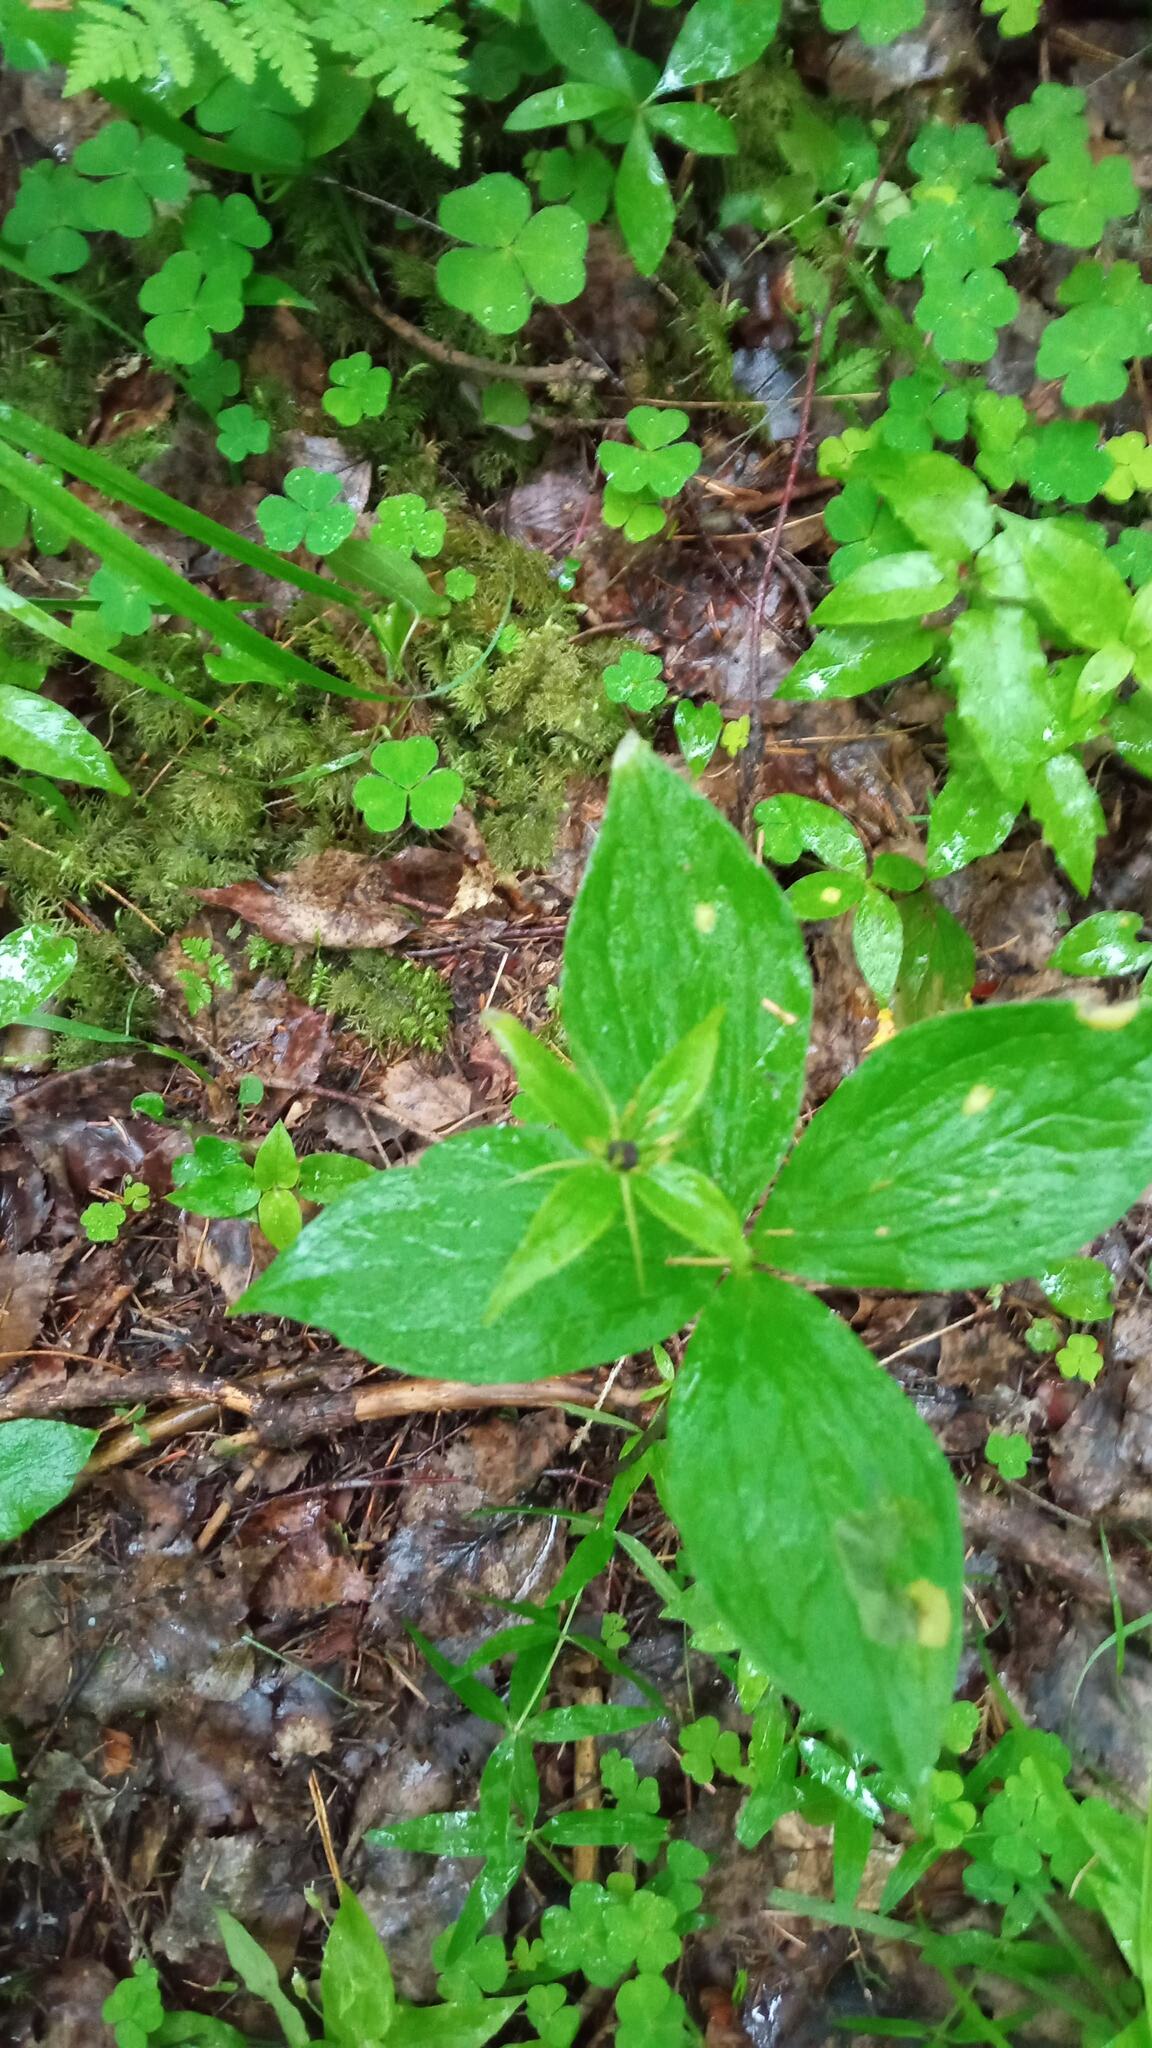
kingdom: Plantae
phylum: Tracheophyta
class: Liliopsida
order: Liliales
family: Melanthiaceae
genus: Paris
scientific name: Paris quadrifolia
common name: Herb-paris
